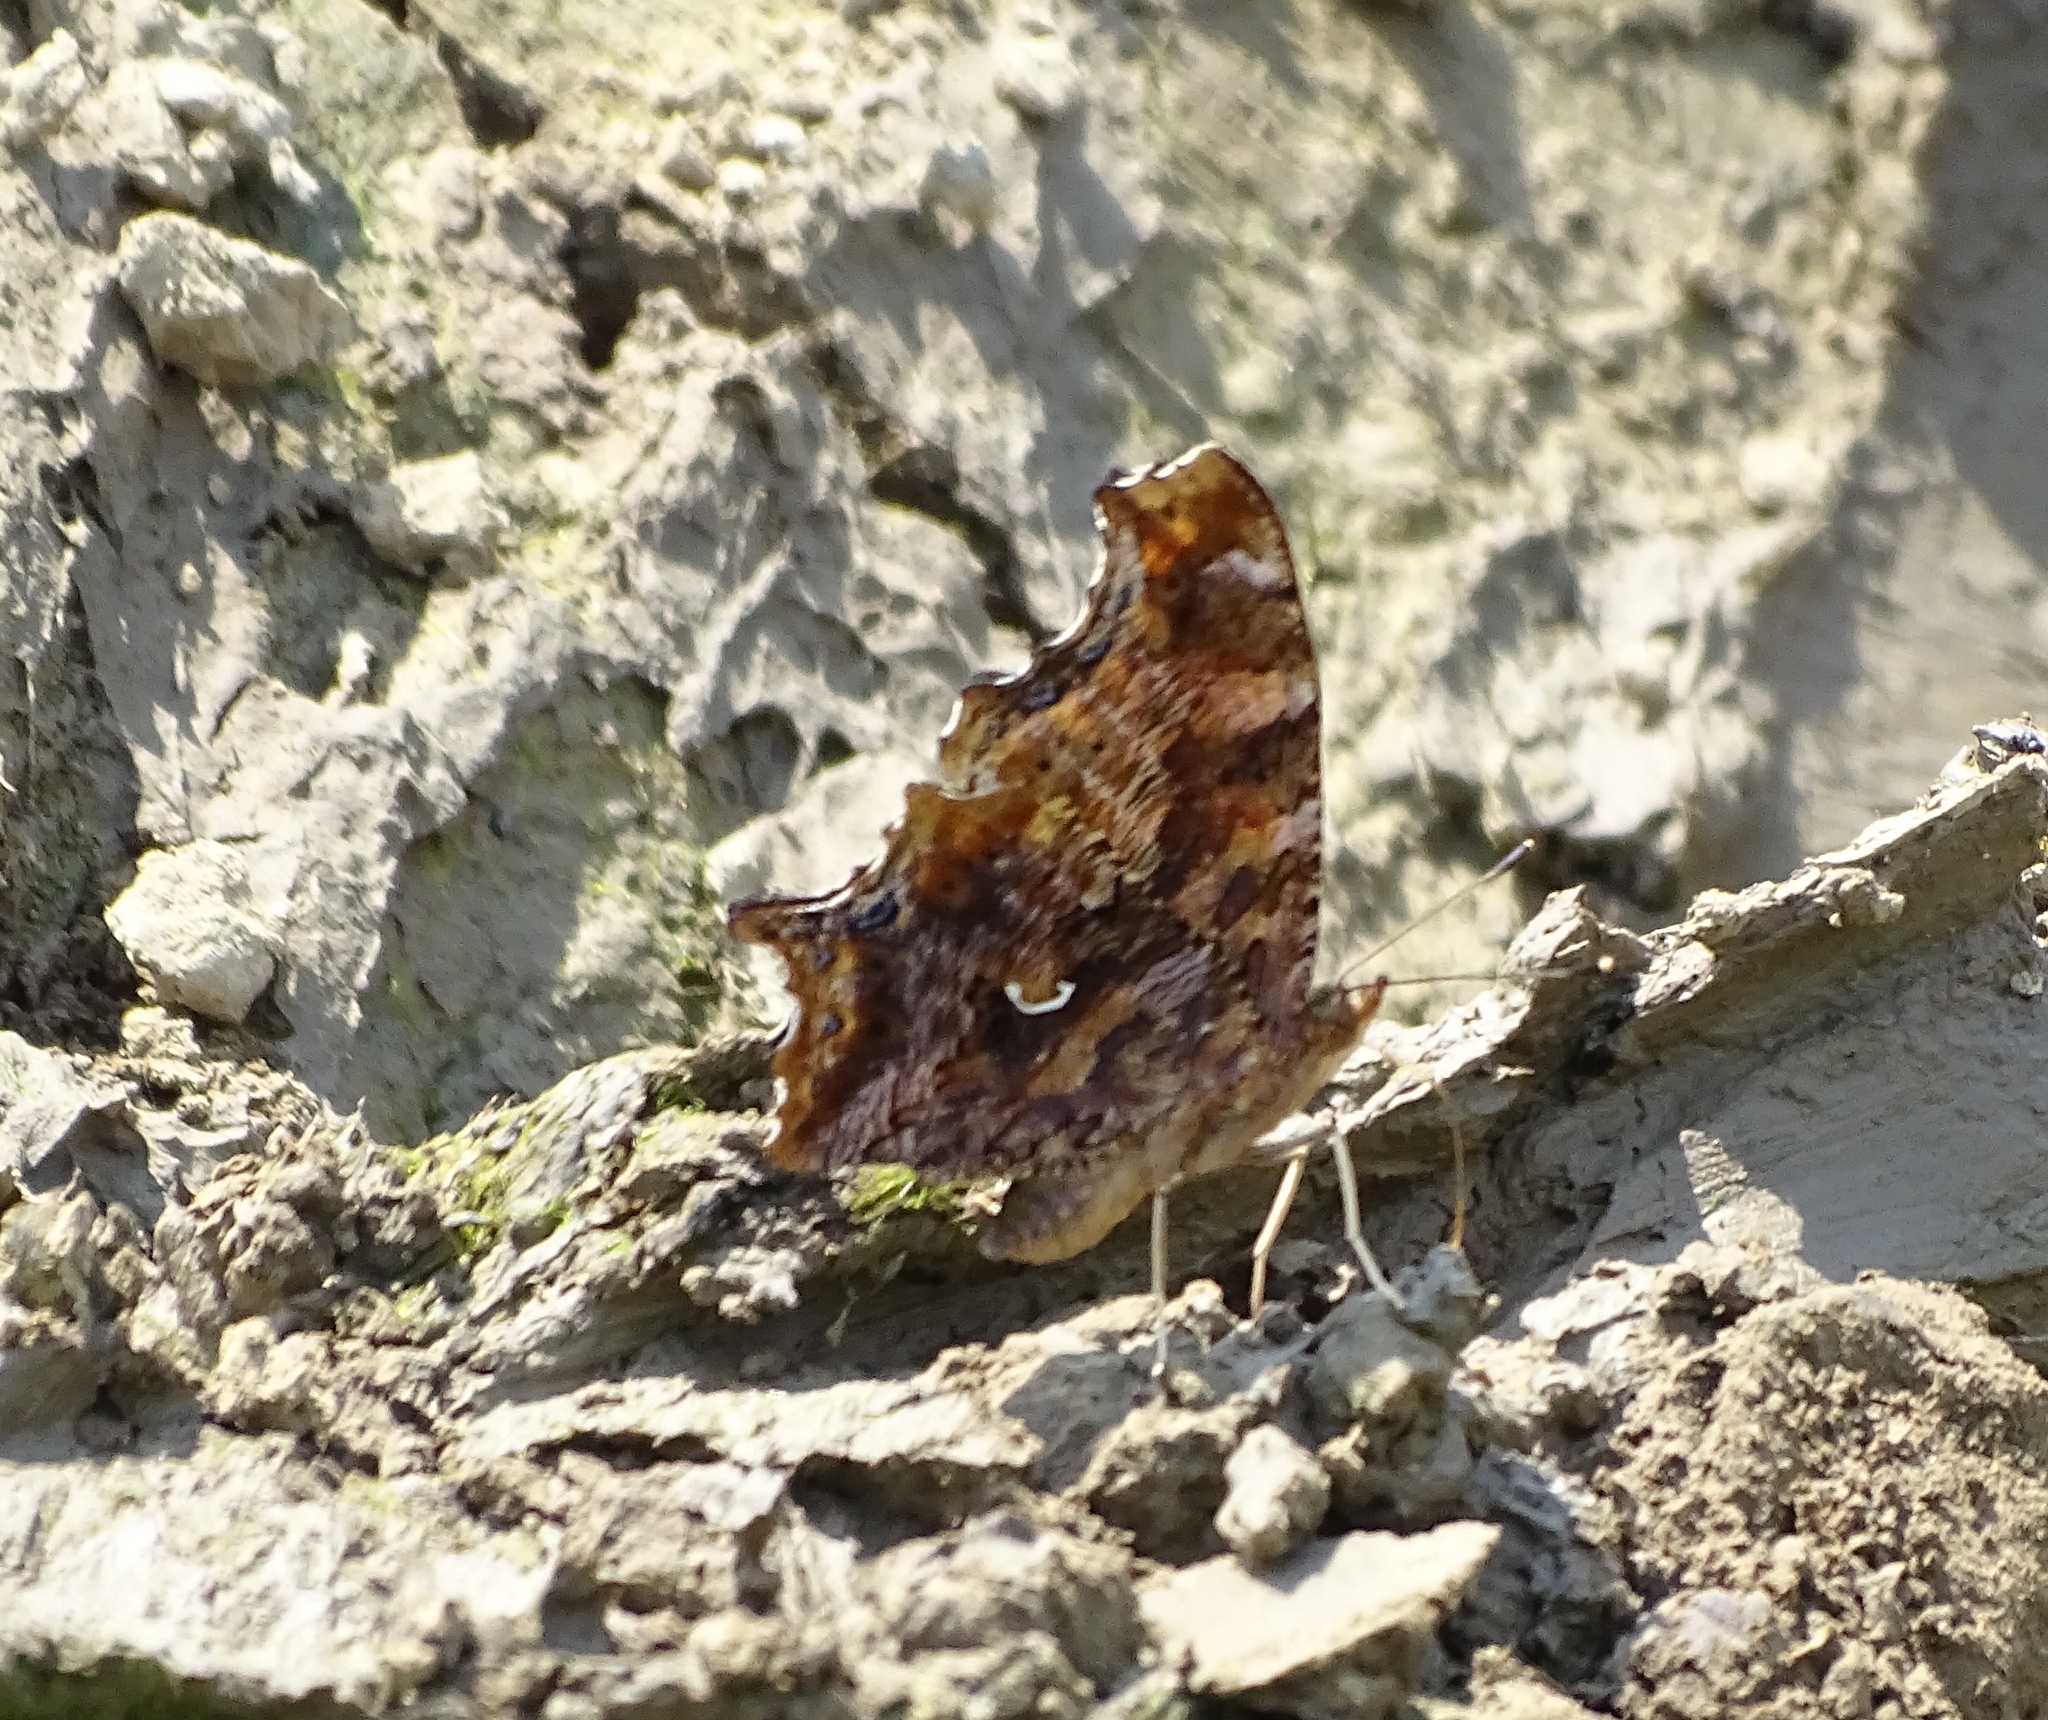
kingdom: Animalia
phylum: Arthropoda
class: Insecta
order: Lepidoptera
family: Nymphalidae
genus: Polygonia
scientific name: Polygonia comma
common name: Eastern comma
